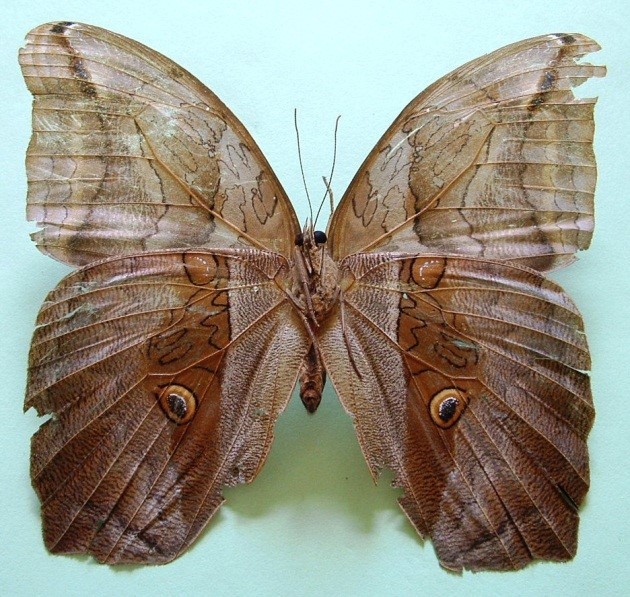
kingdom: Animalia
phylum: Arthropoda
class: Insecta
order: Lepidoptera
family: Nymphalidae
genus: Eryphanis
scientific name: Eryphanis lycomedon
